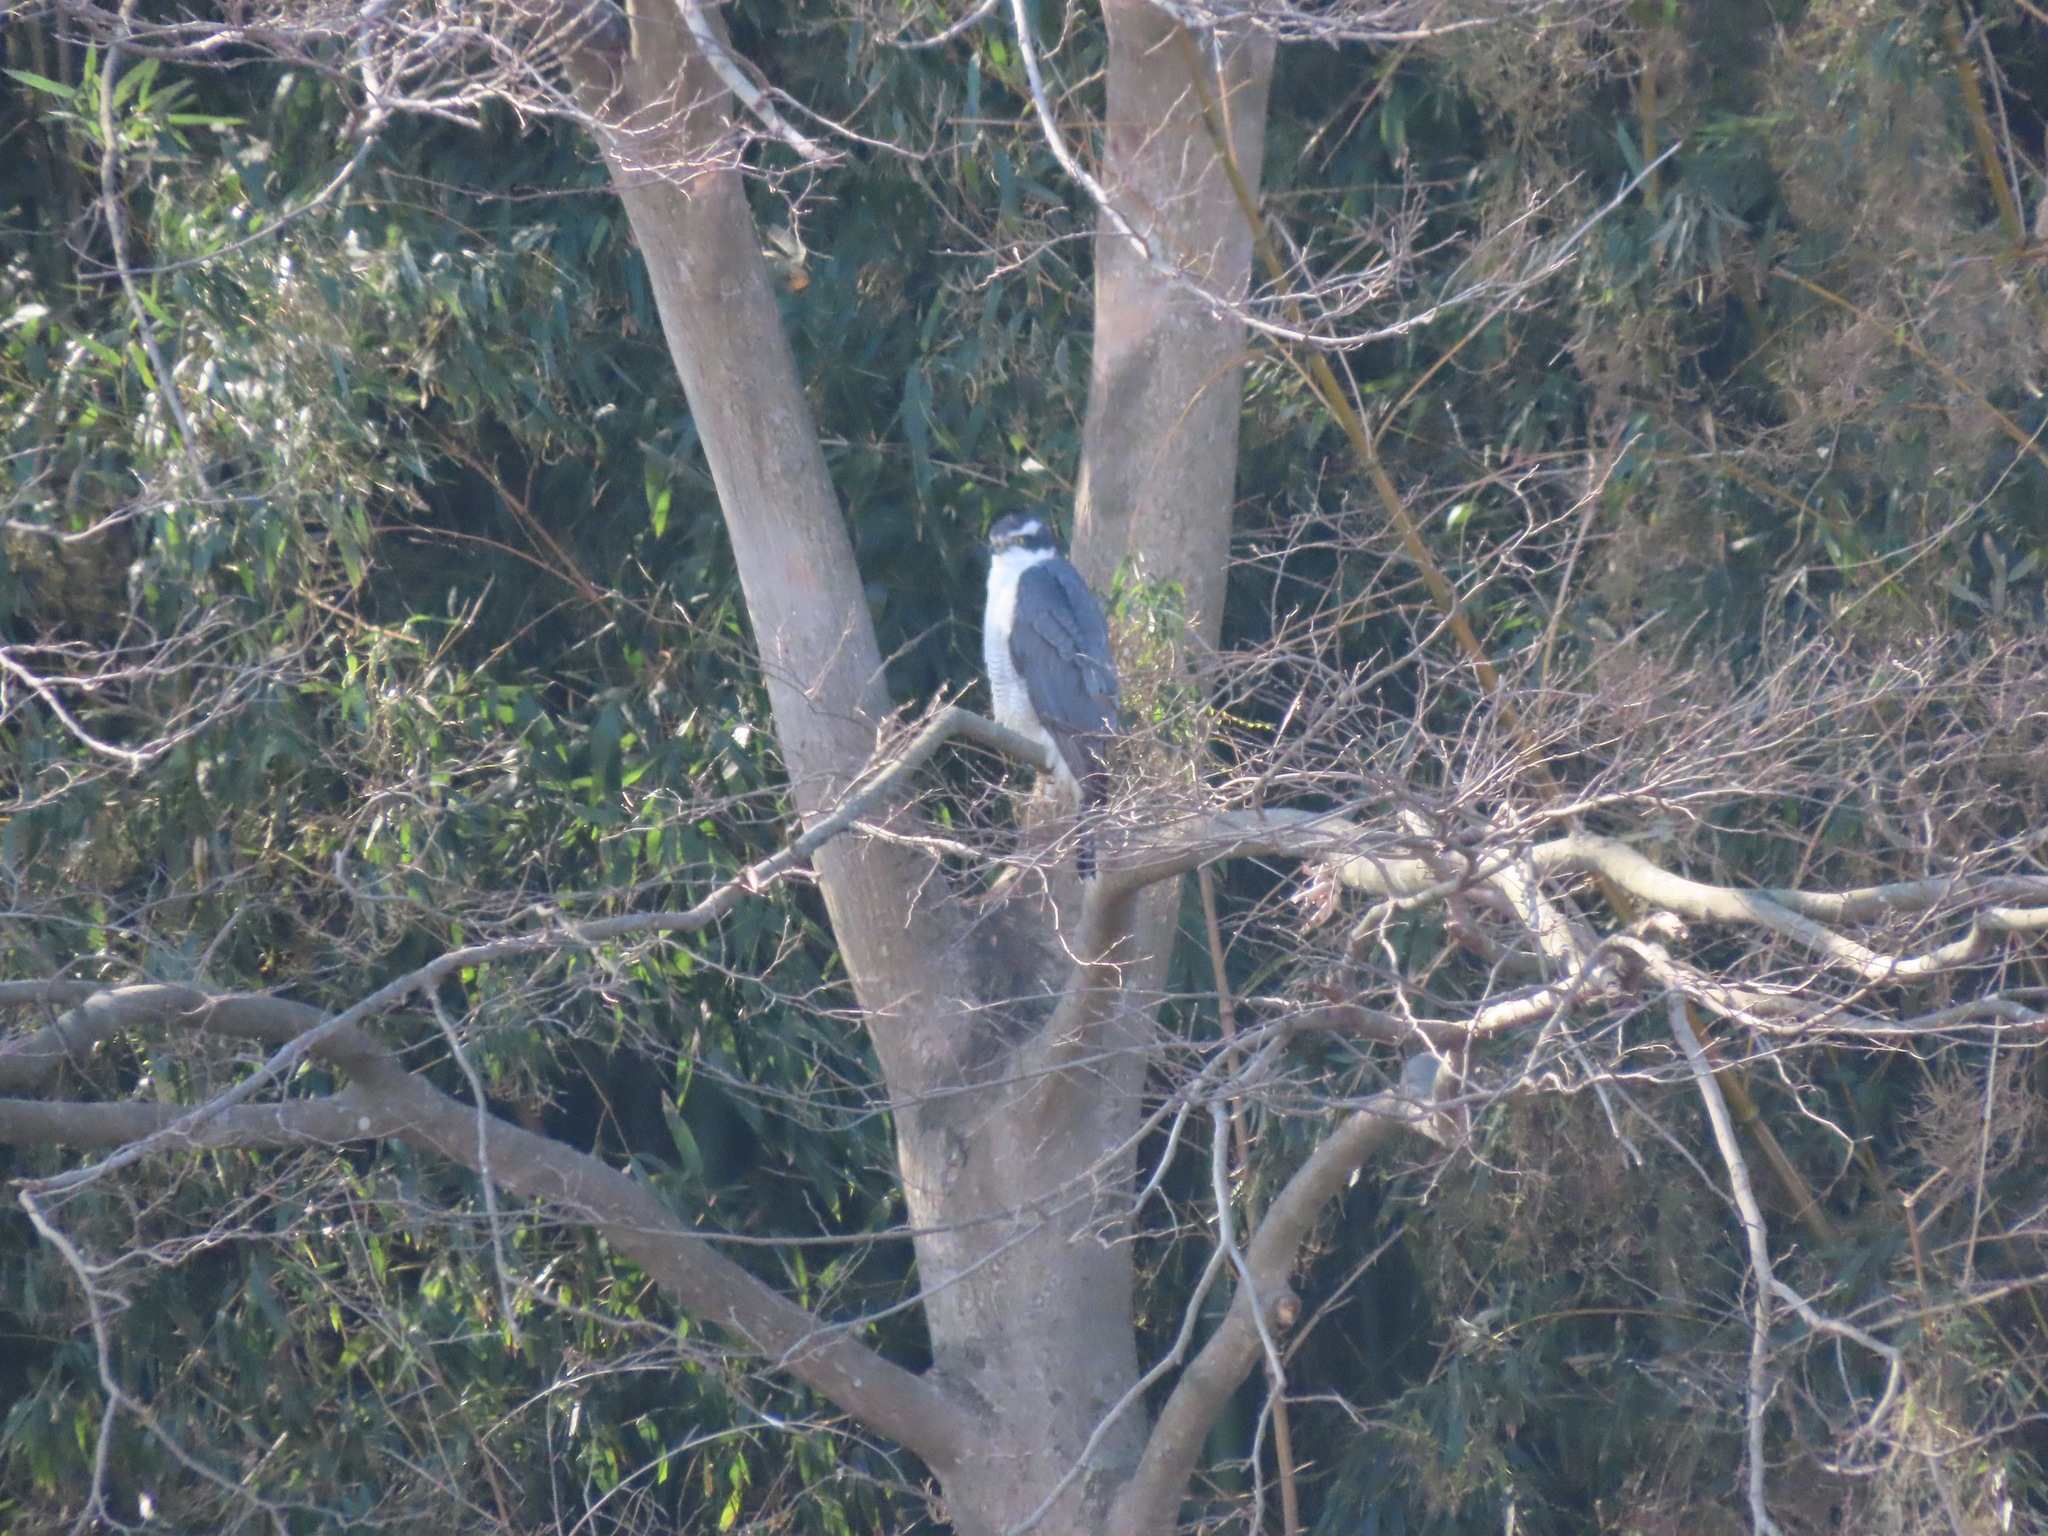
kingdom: Animalia
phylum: Chordata
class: Aves
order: Accipitriformes
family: Accipitridae
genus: Accipiter
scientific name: Accipiter gentilis
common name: Northern goshawk
